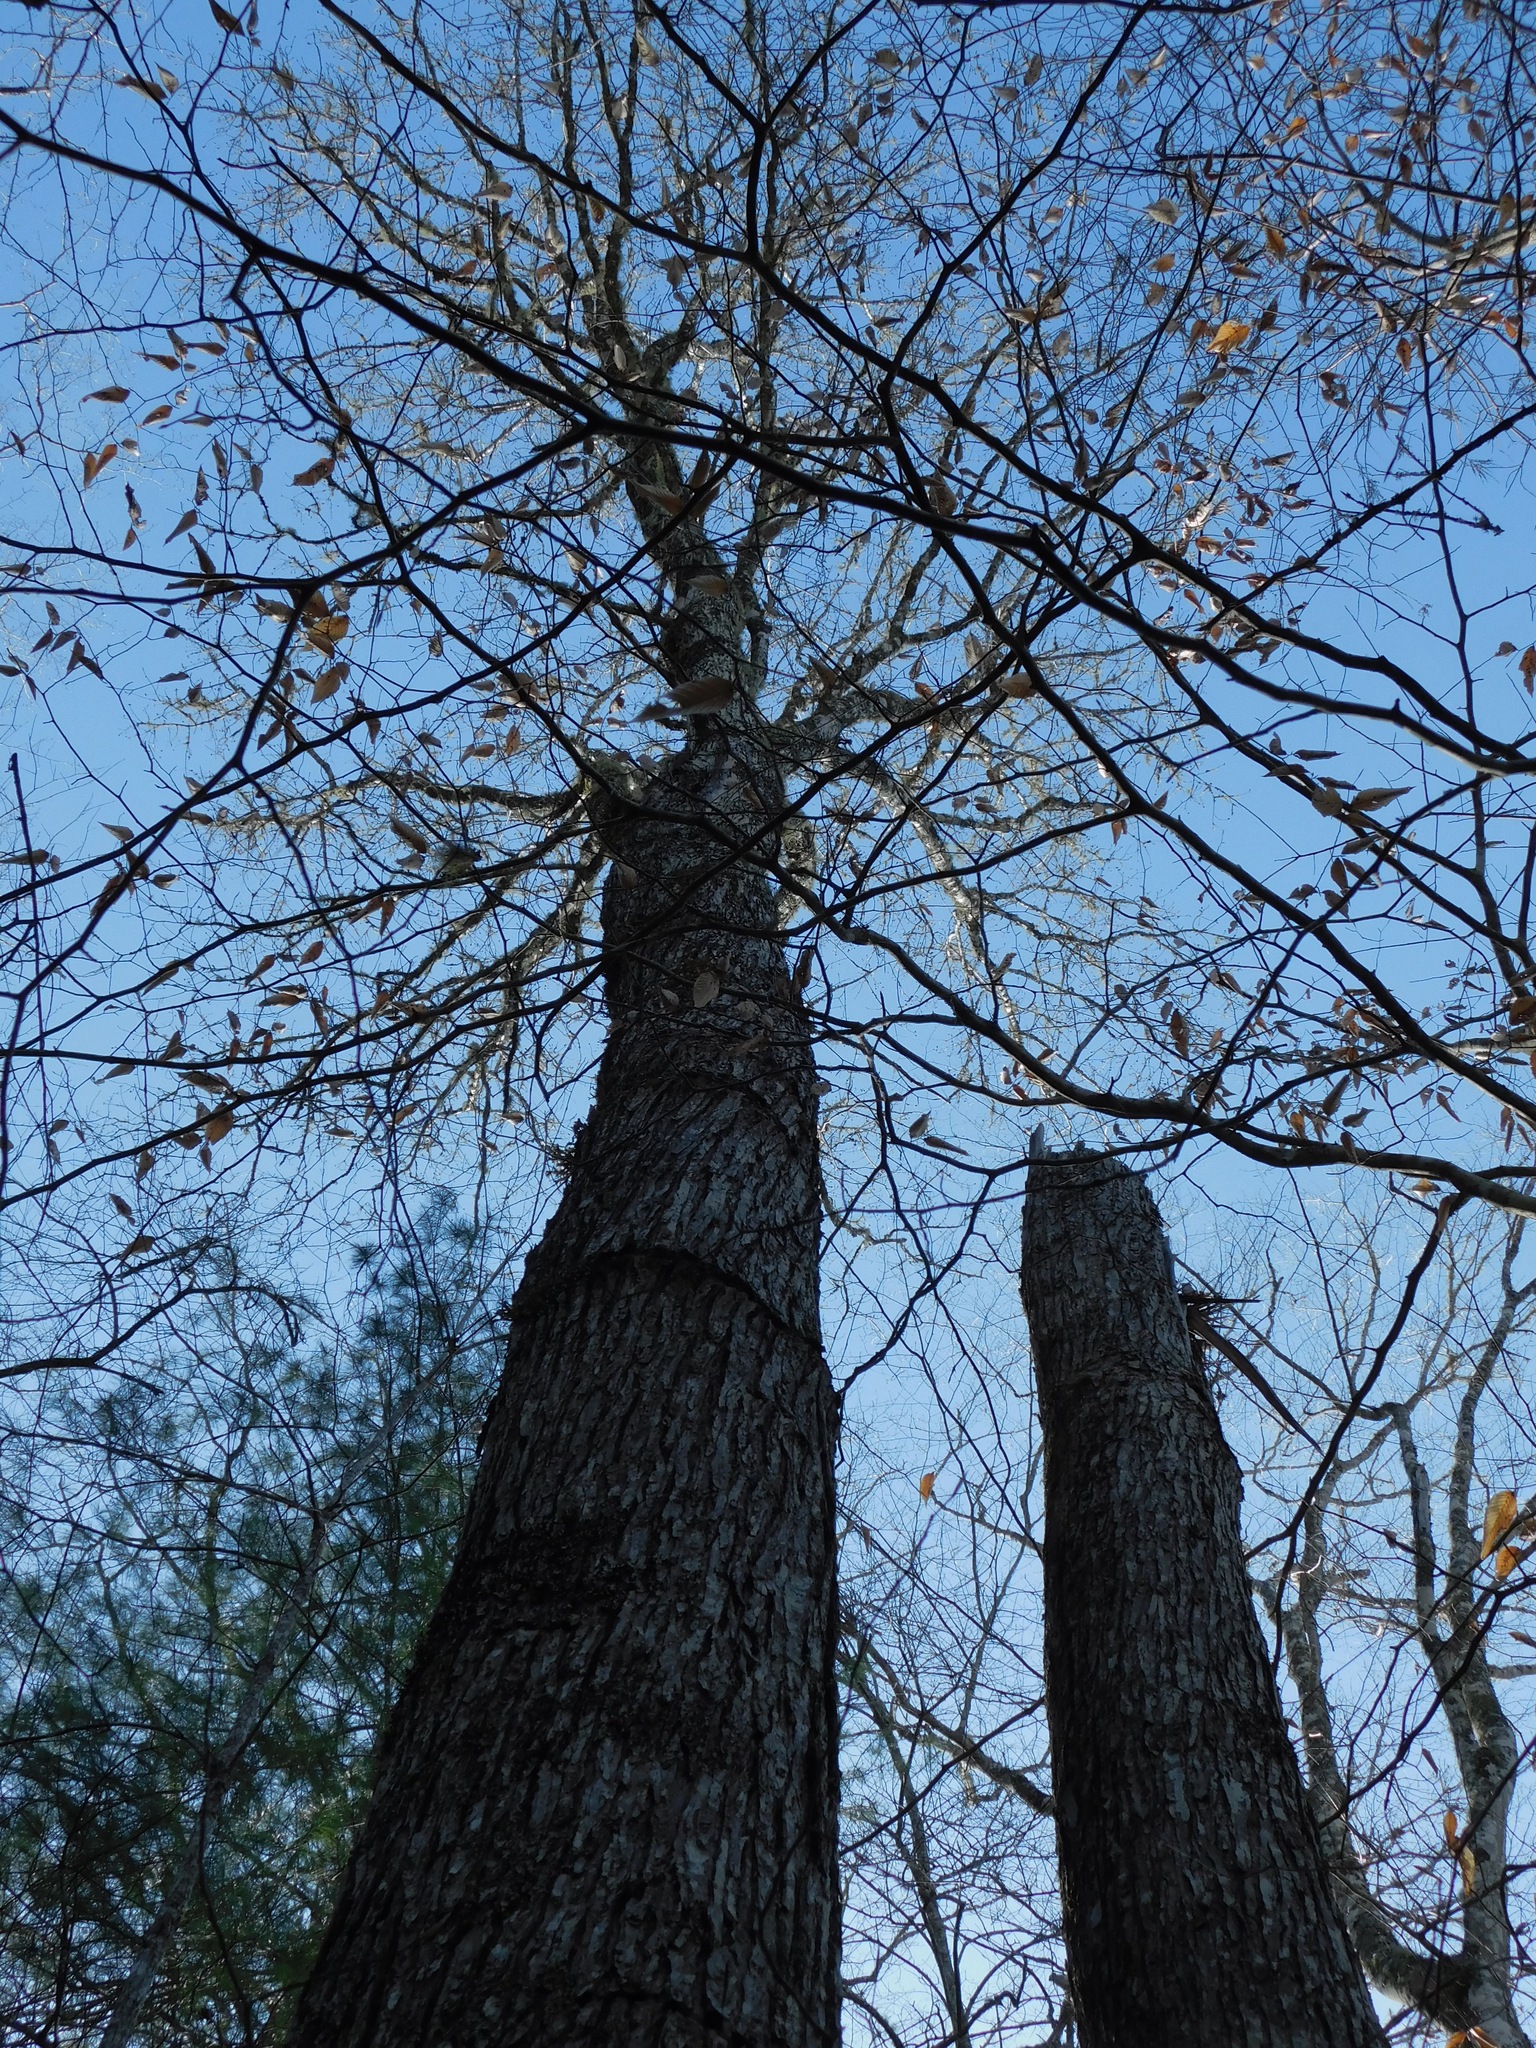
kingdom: Plantae
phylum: Tracheophyta
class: Magnoliopsida
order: Fagales
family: Fagaceae
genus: Quercus
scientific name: Quercus alba
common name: White oak
